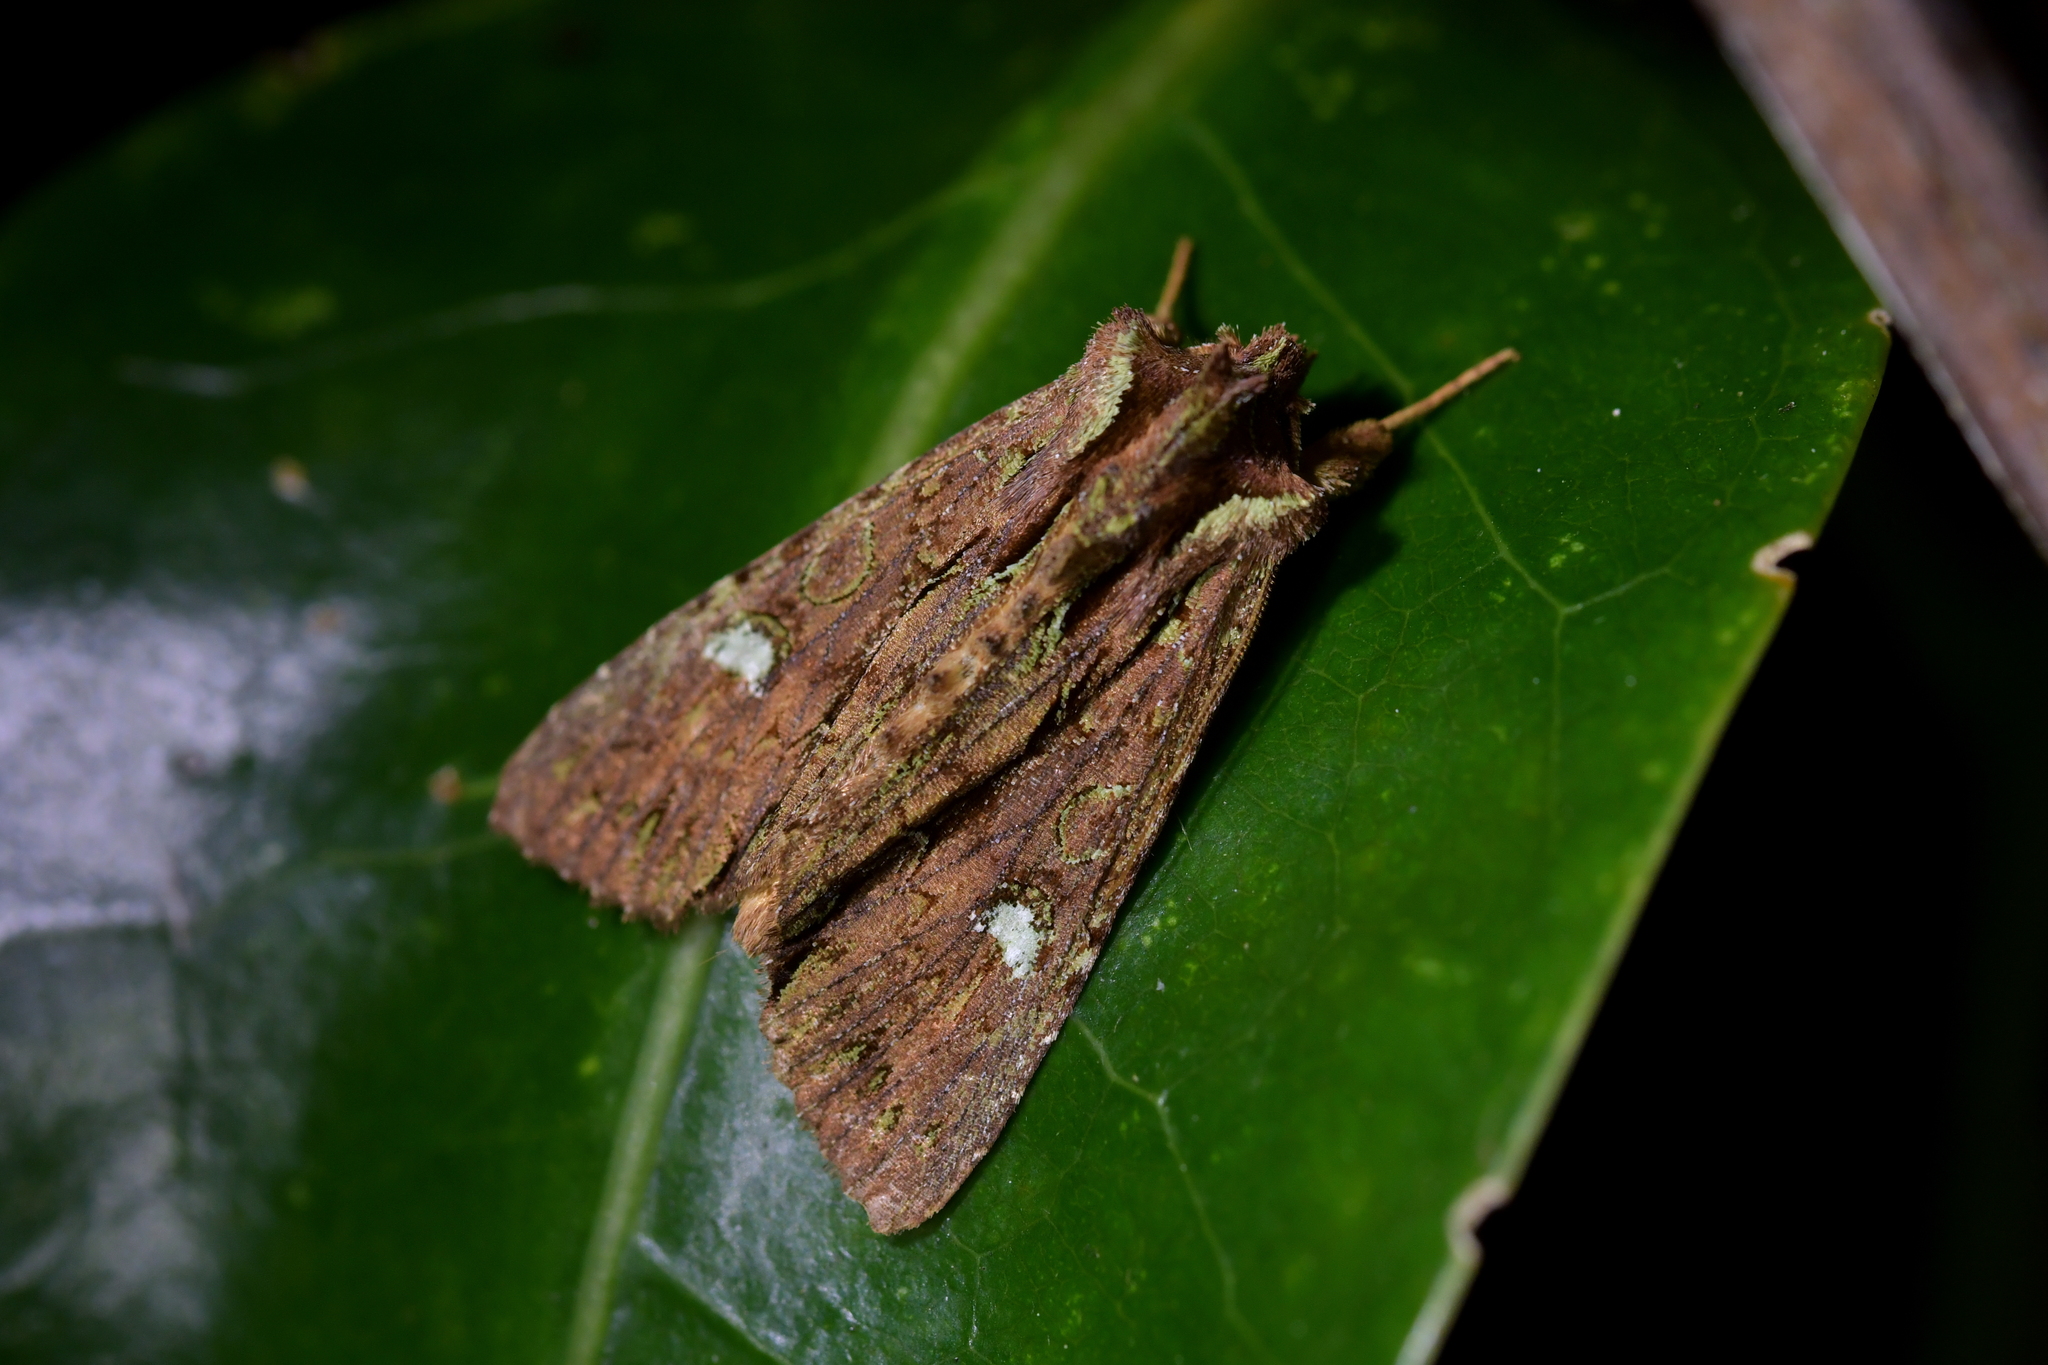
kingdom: Animalia
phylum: Arthropoda
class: Insecta
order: Lepidoptera
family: Noctuidae
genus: Meterana
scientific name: Meterana diatmeta
